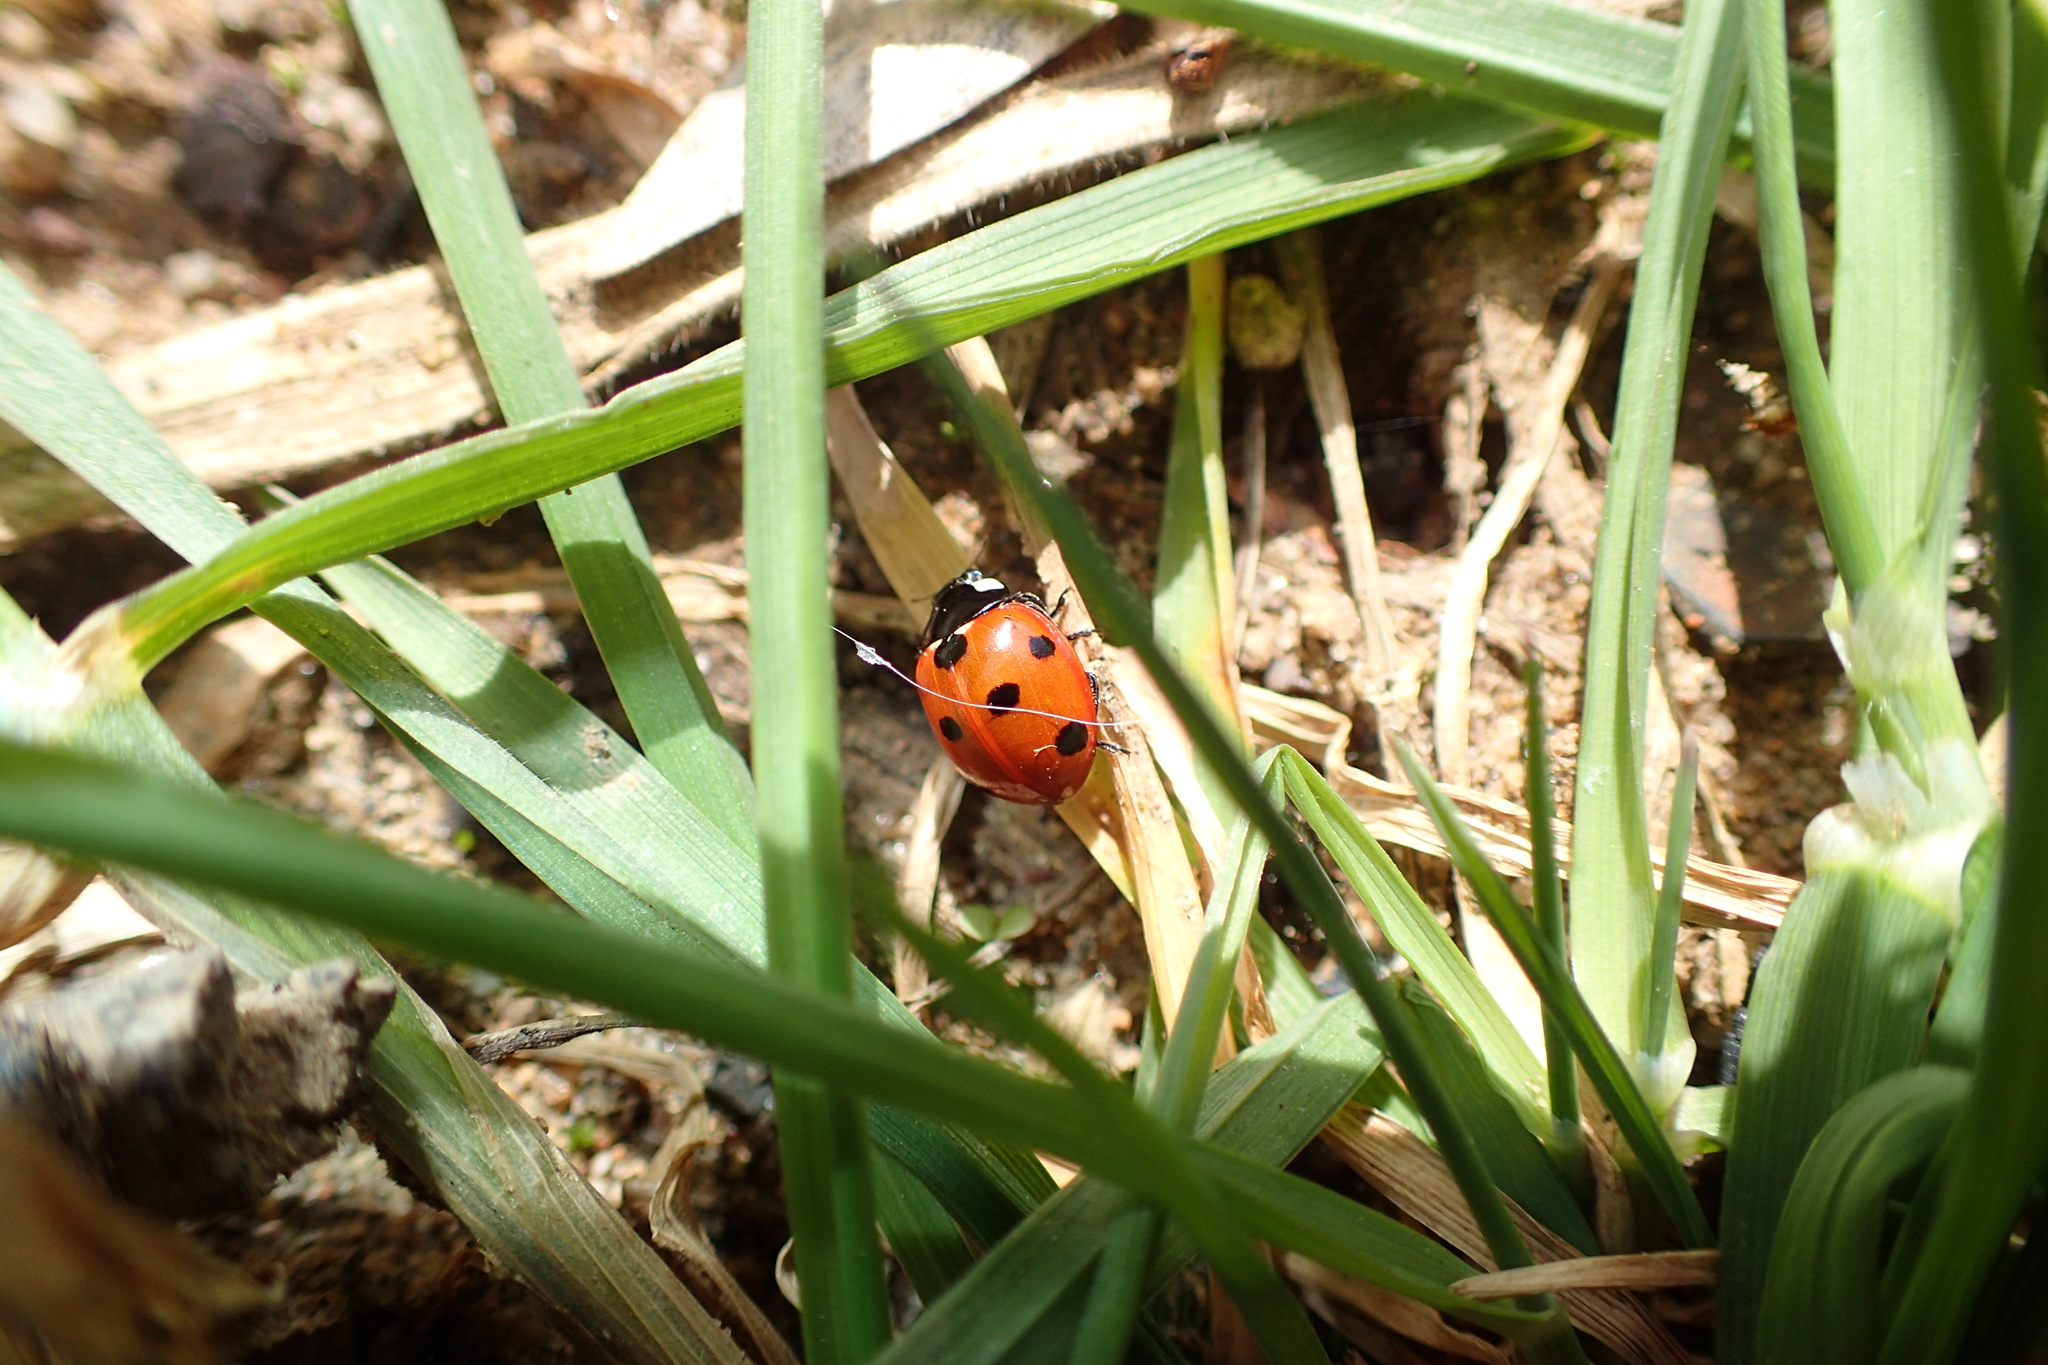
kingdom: Animalia
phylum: Arthropoda
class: Insecta
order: Coleoptera
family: Coccinellidae
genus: Coccinella
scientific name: Coccinella septempunctata
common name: Sevenspotted lady beetle
